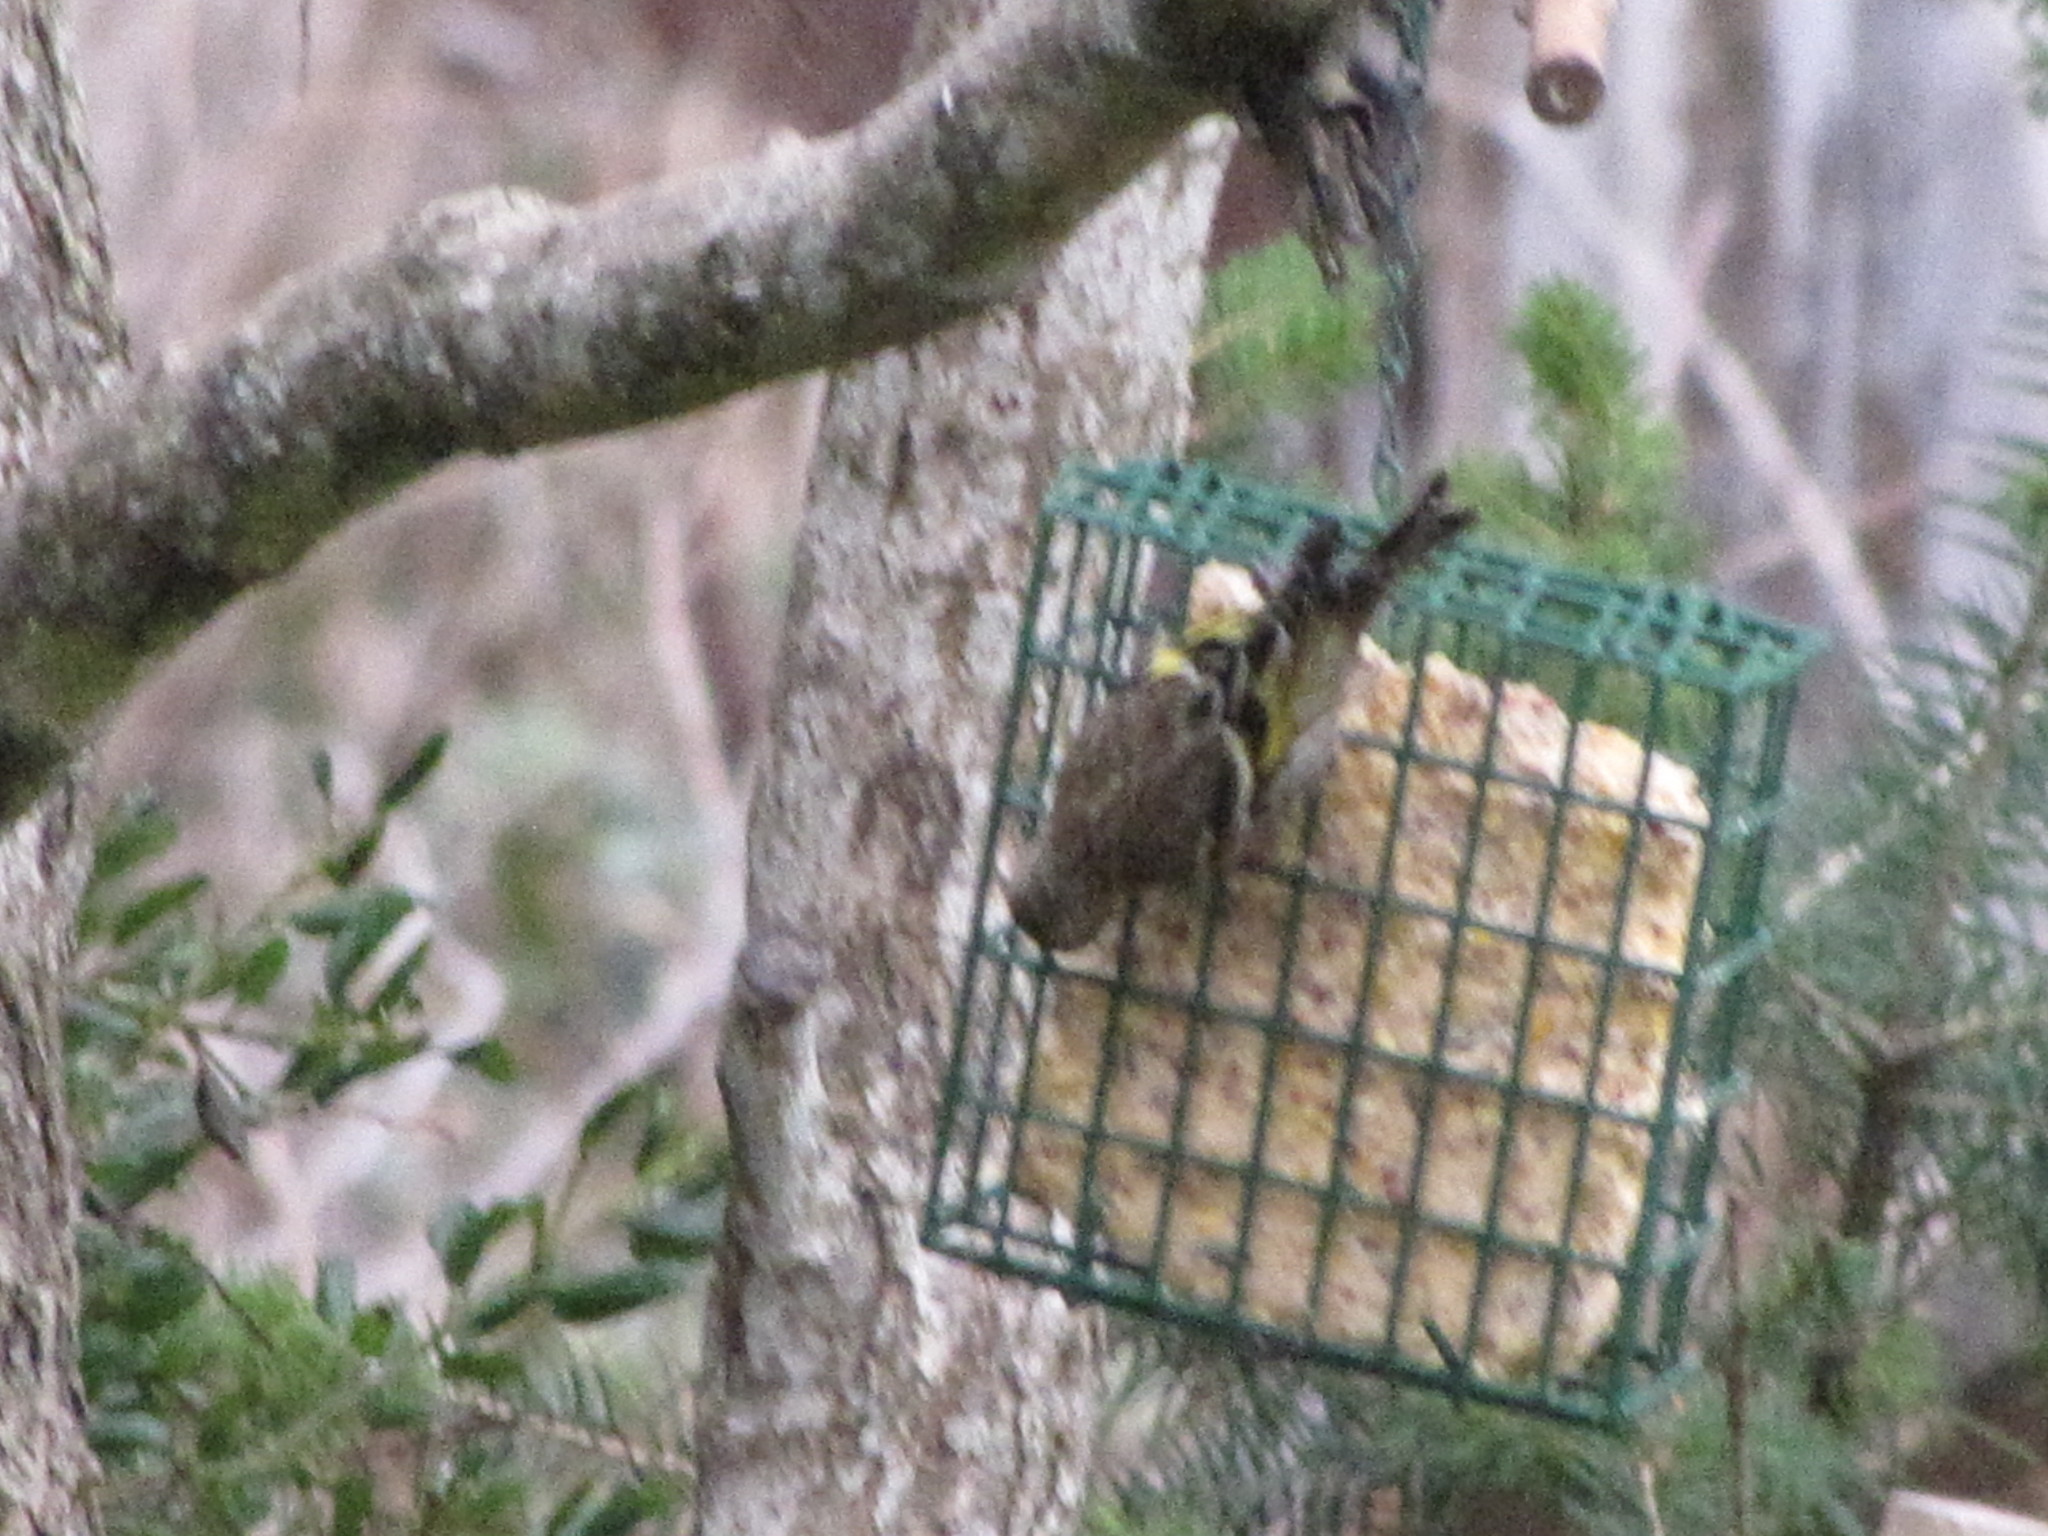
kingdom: Animalia
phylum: Chordata
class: Aves
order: Passeriformes
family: Fringillidae
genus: Spinus
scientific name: Spinus pinus
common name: Pine siskin
